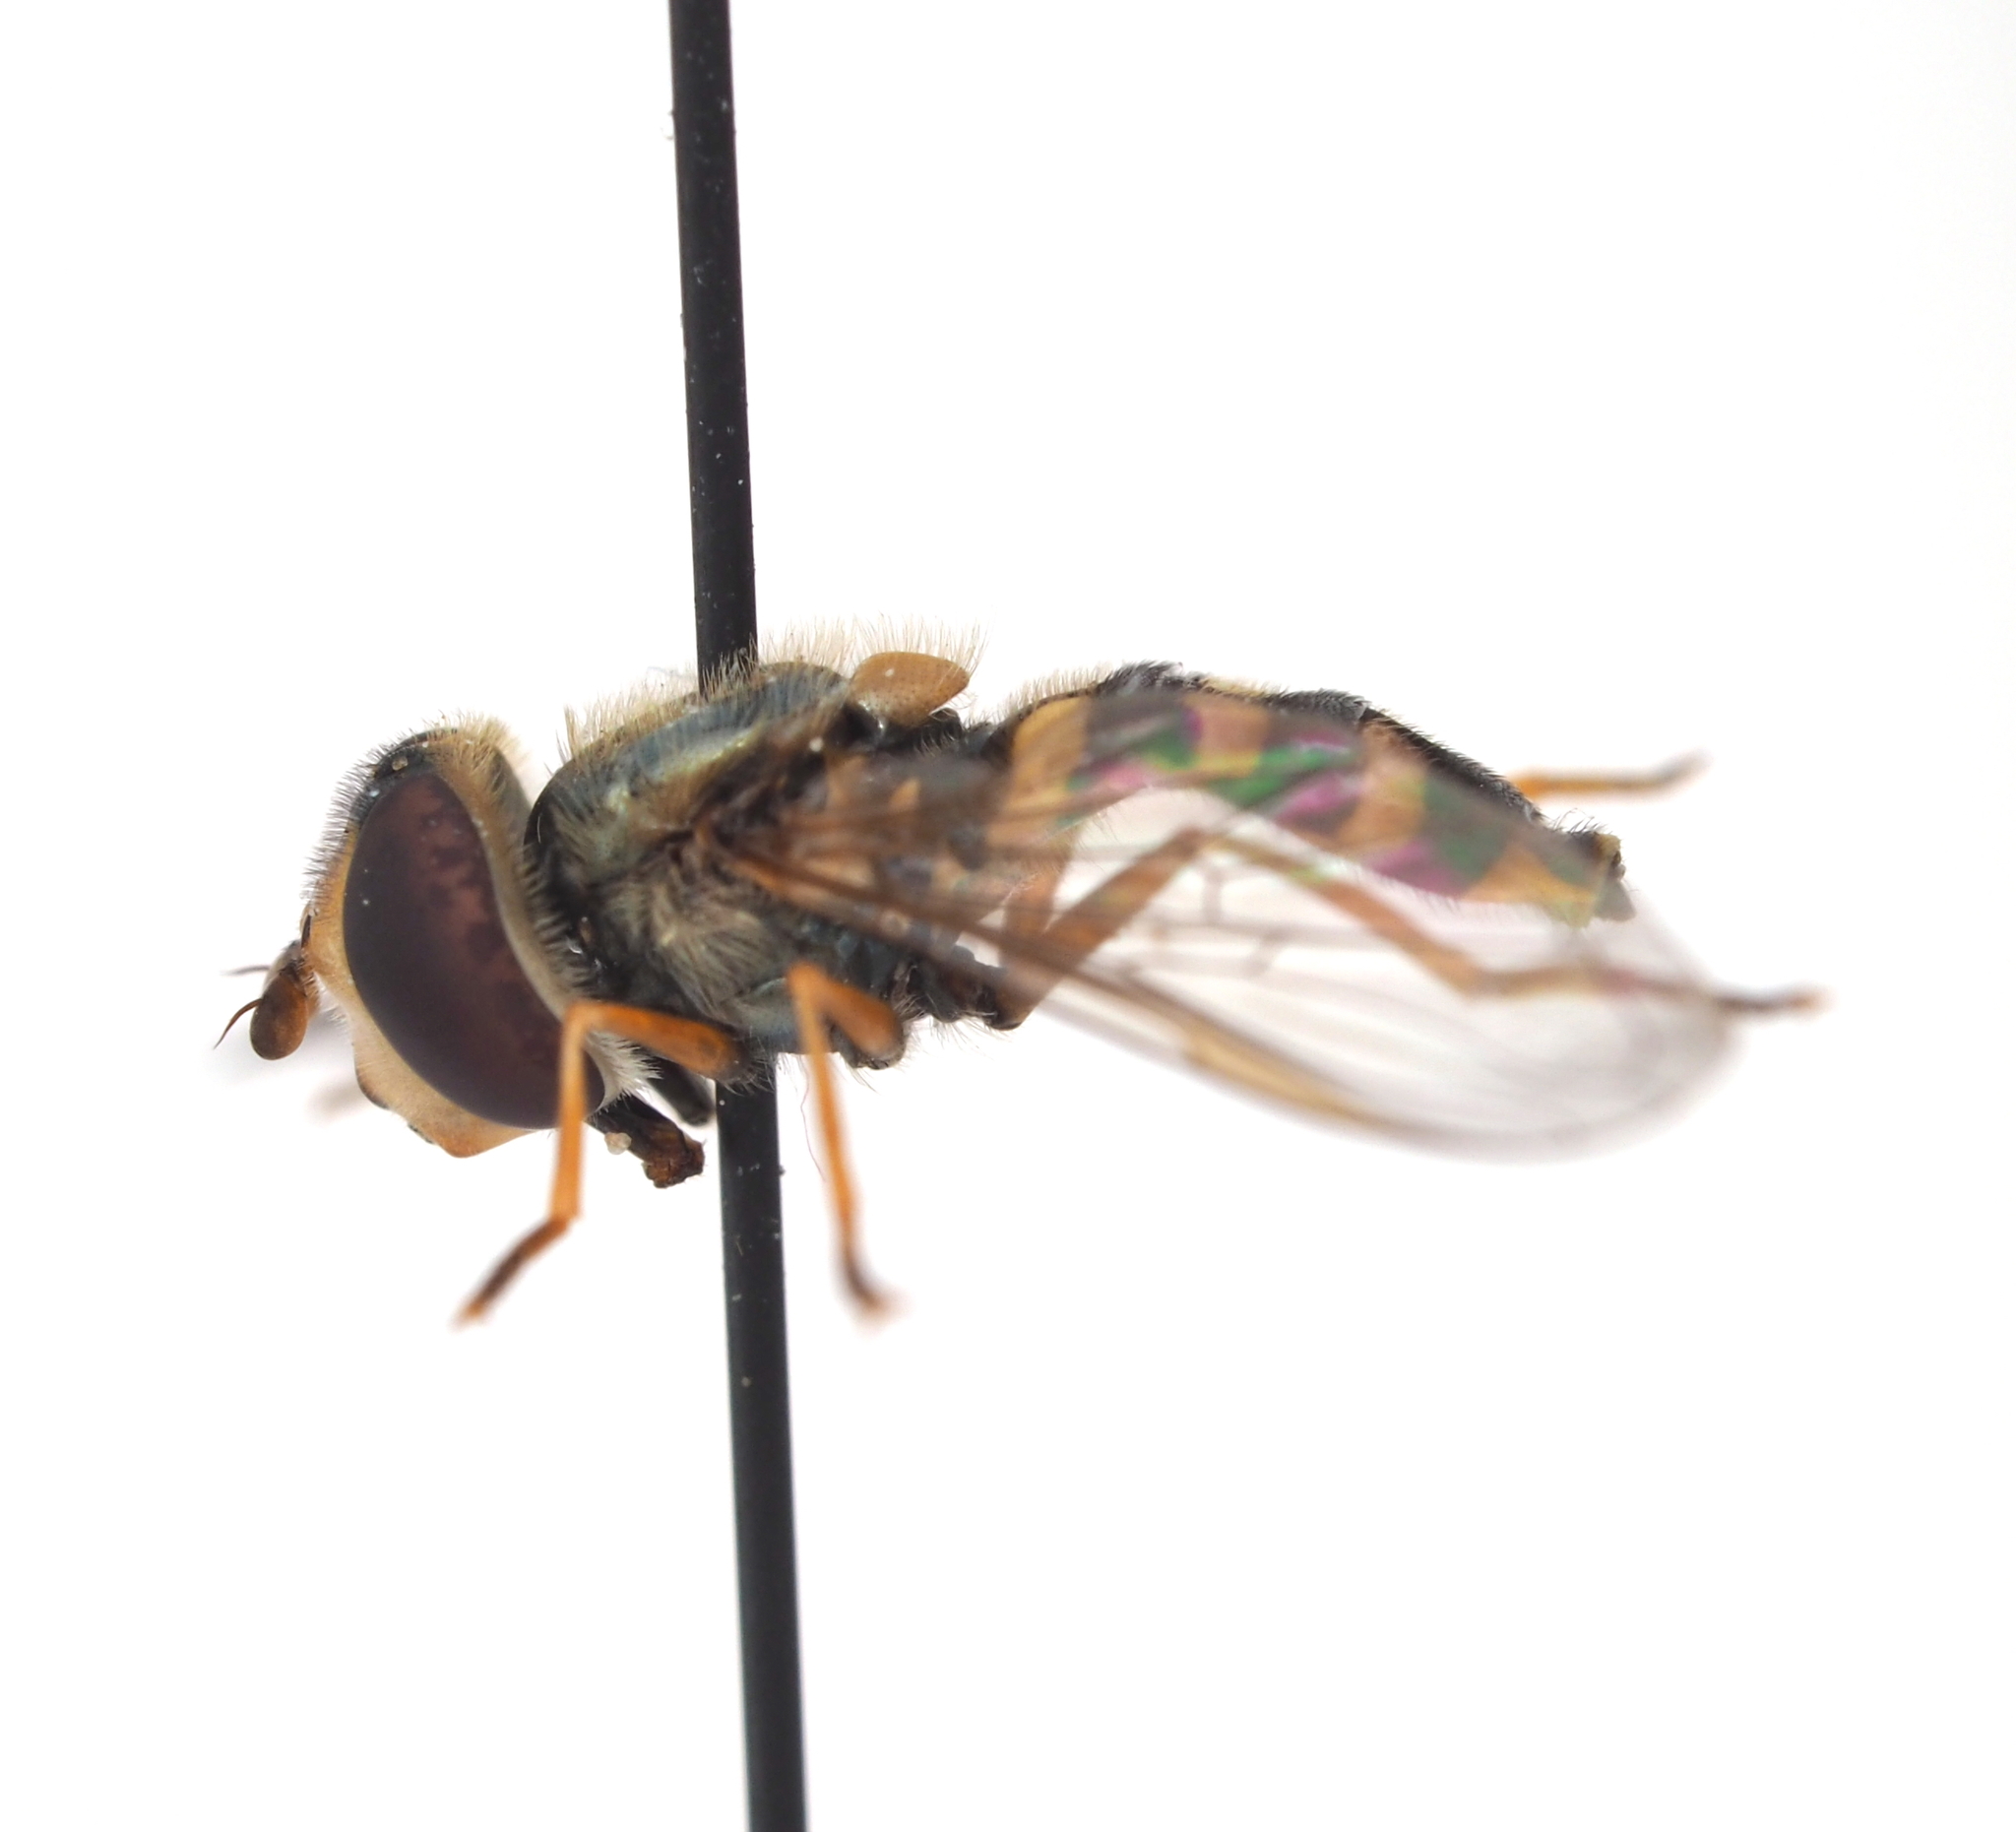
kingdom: Animalia
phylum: Arthropoda
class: Insecta
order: Diptera
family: Syrphidae
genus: Eupeodes
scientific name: Eupeodes corollae
